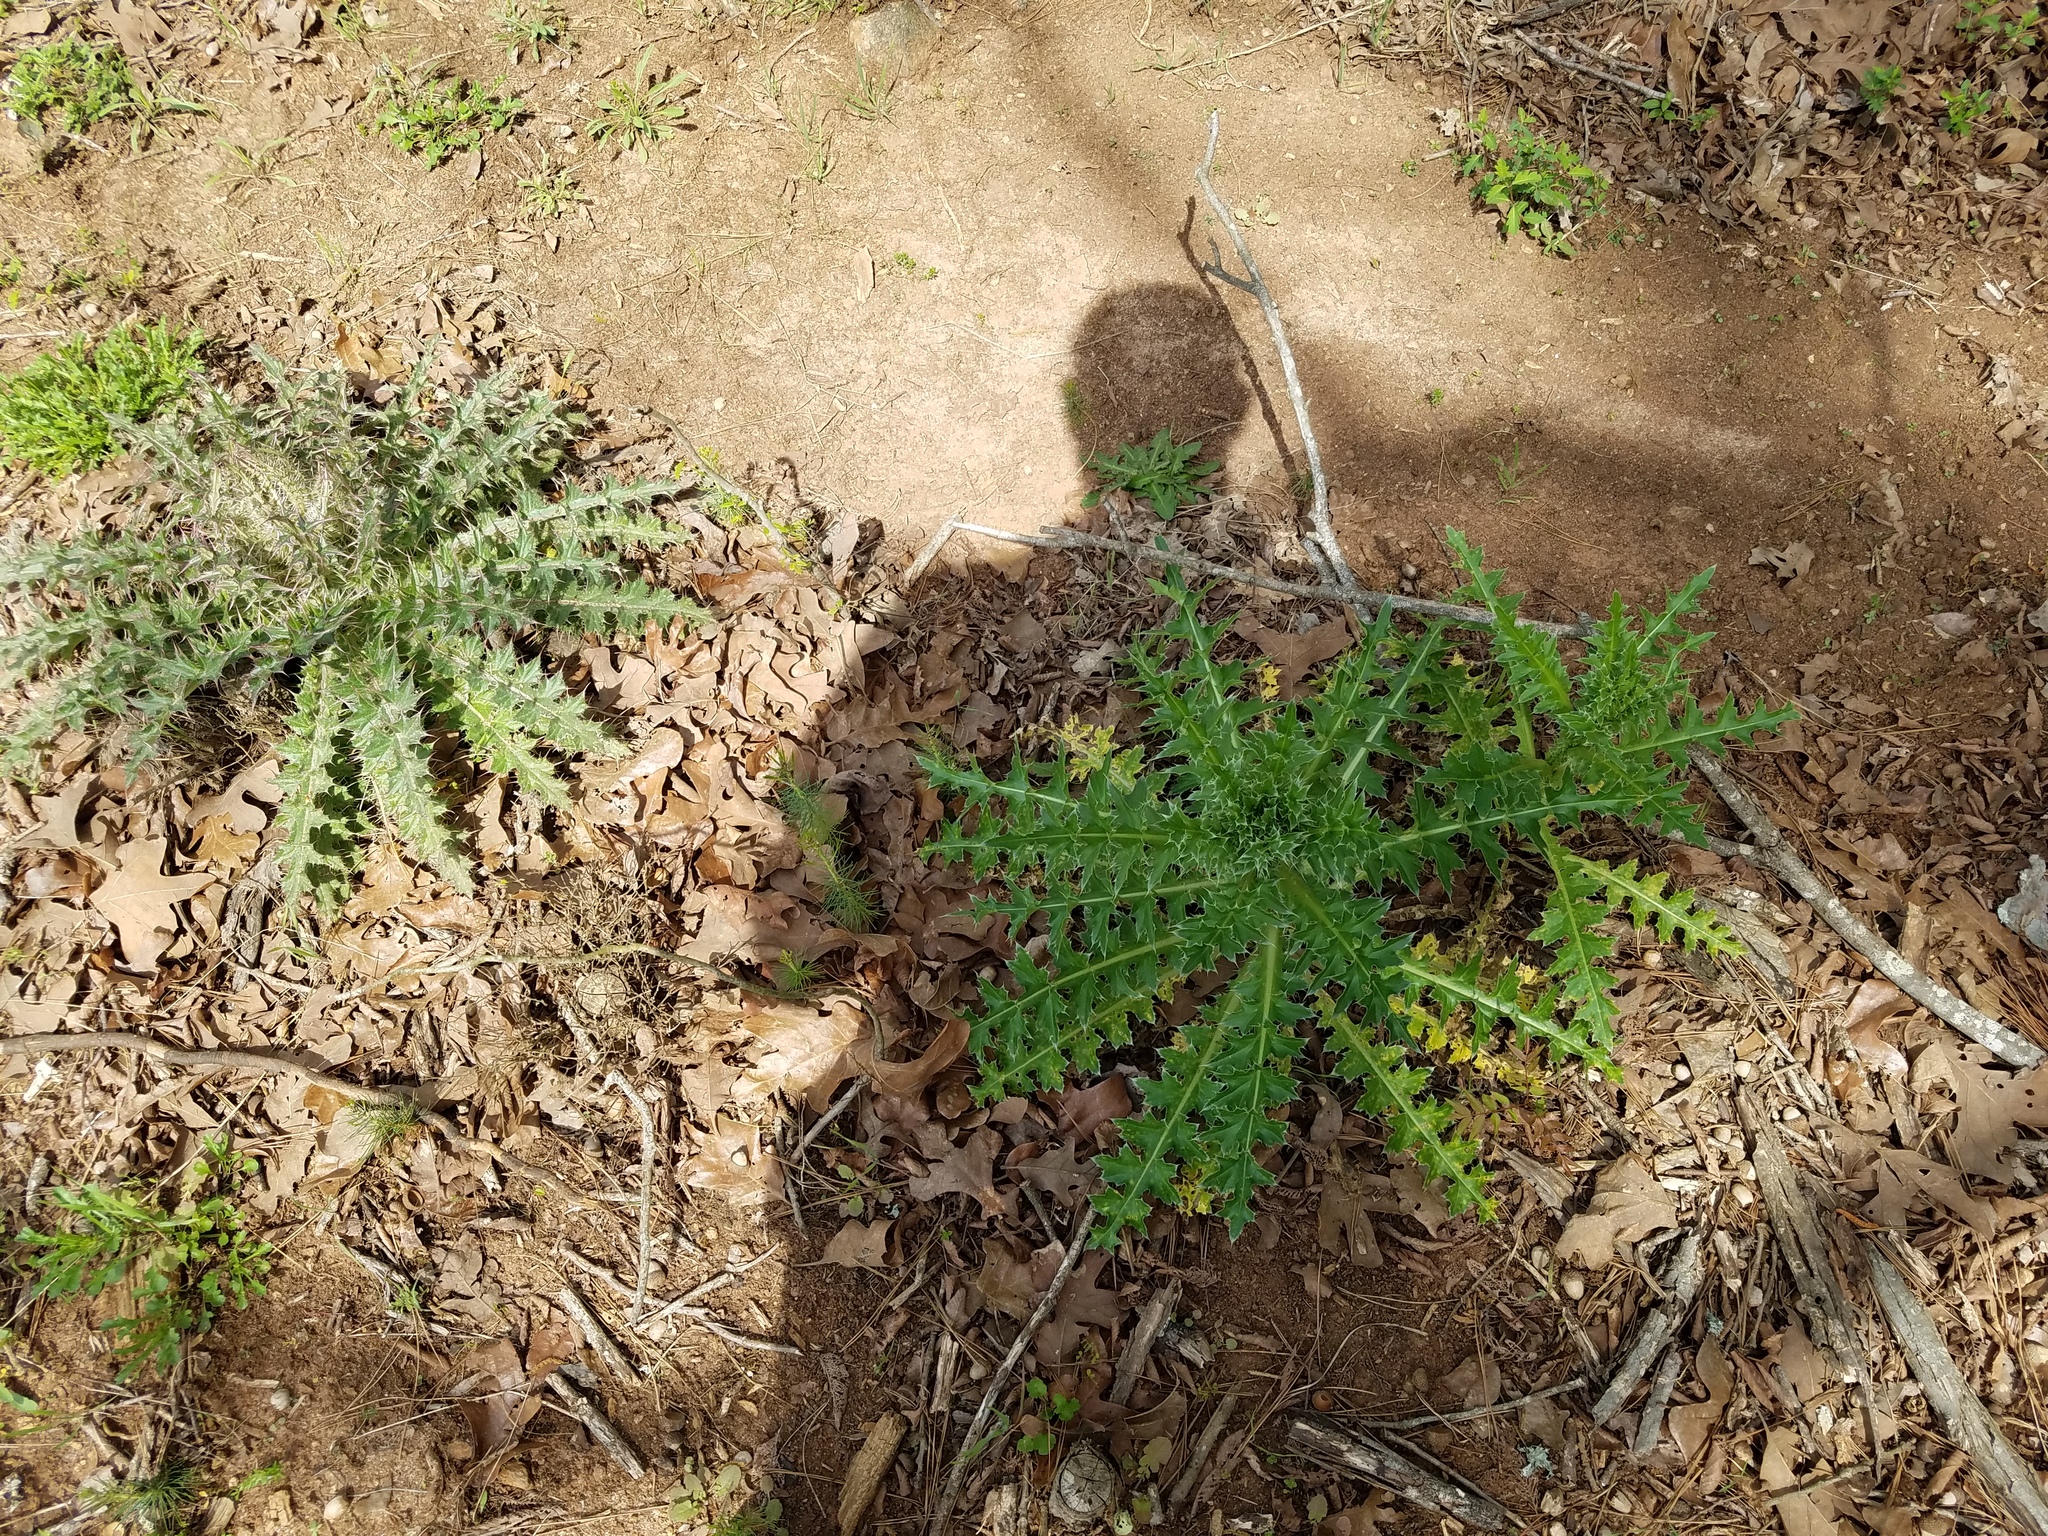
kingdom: Plantae
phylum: Tracheophyta
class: Magnoliopsida
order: Asterales
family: Asteraceae
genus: Cirsium
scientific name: Cirsium horridulum
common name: Bristly thistle
